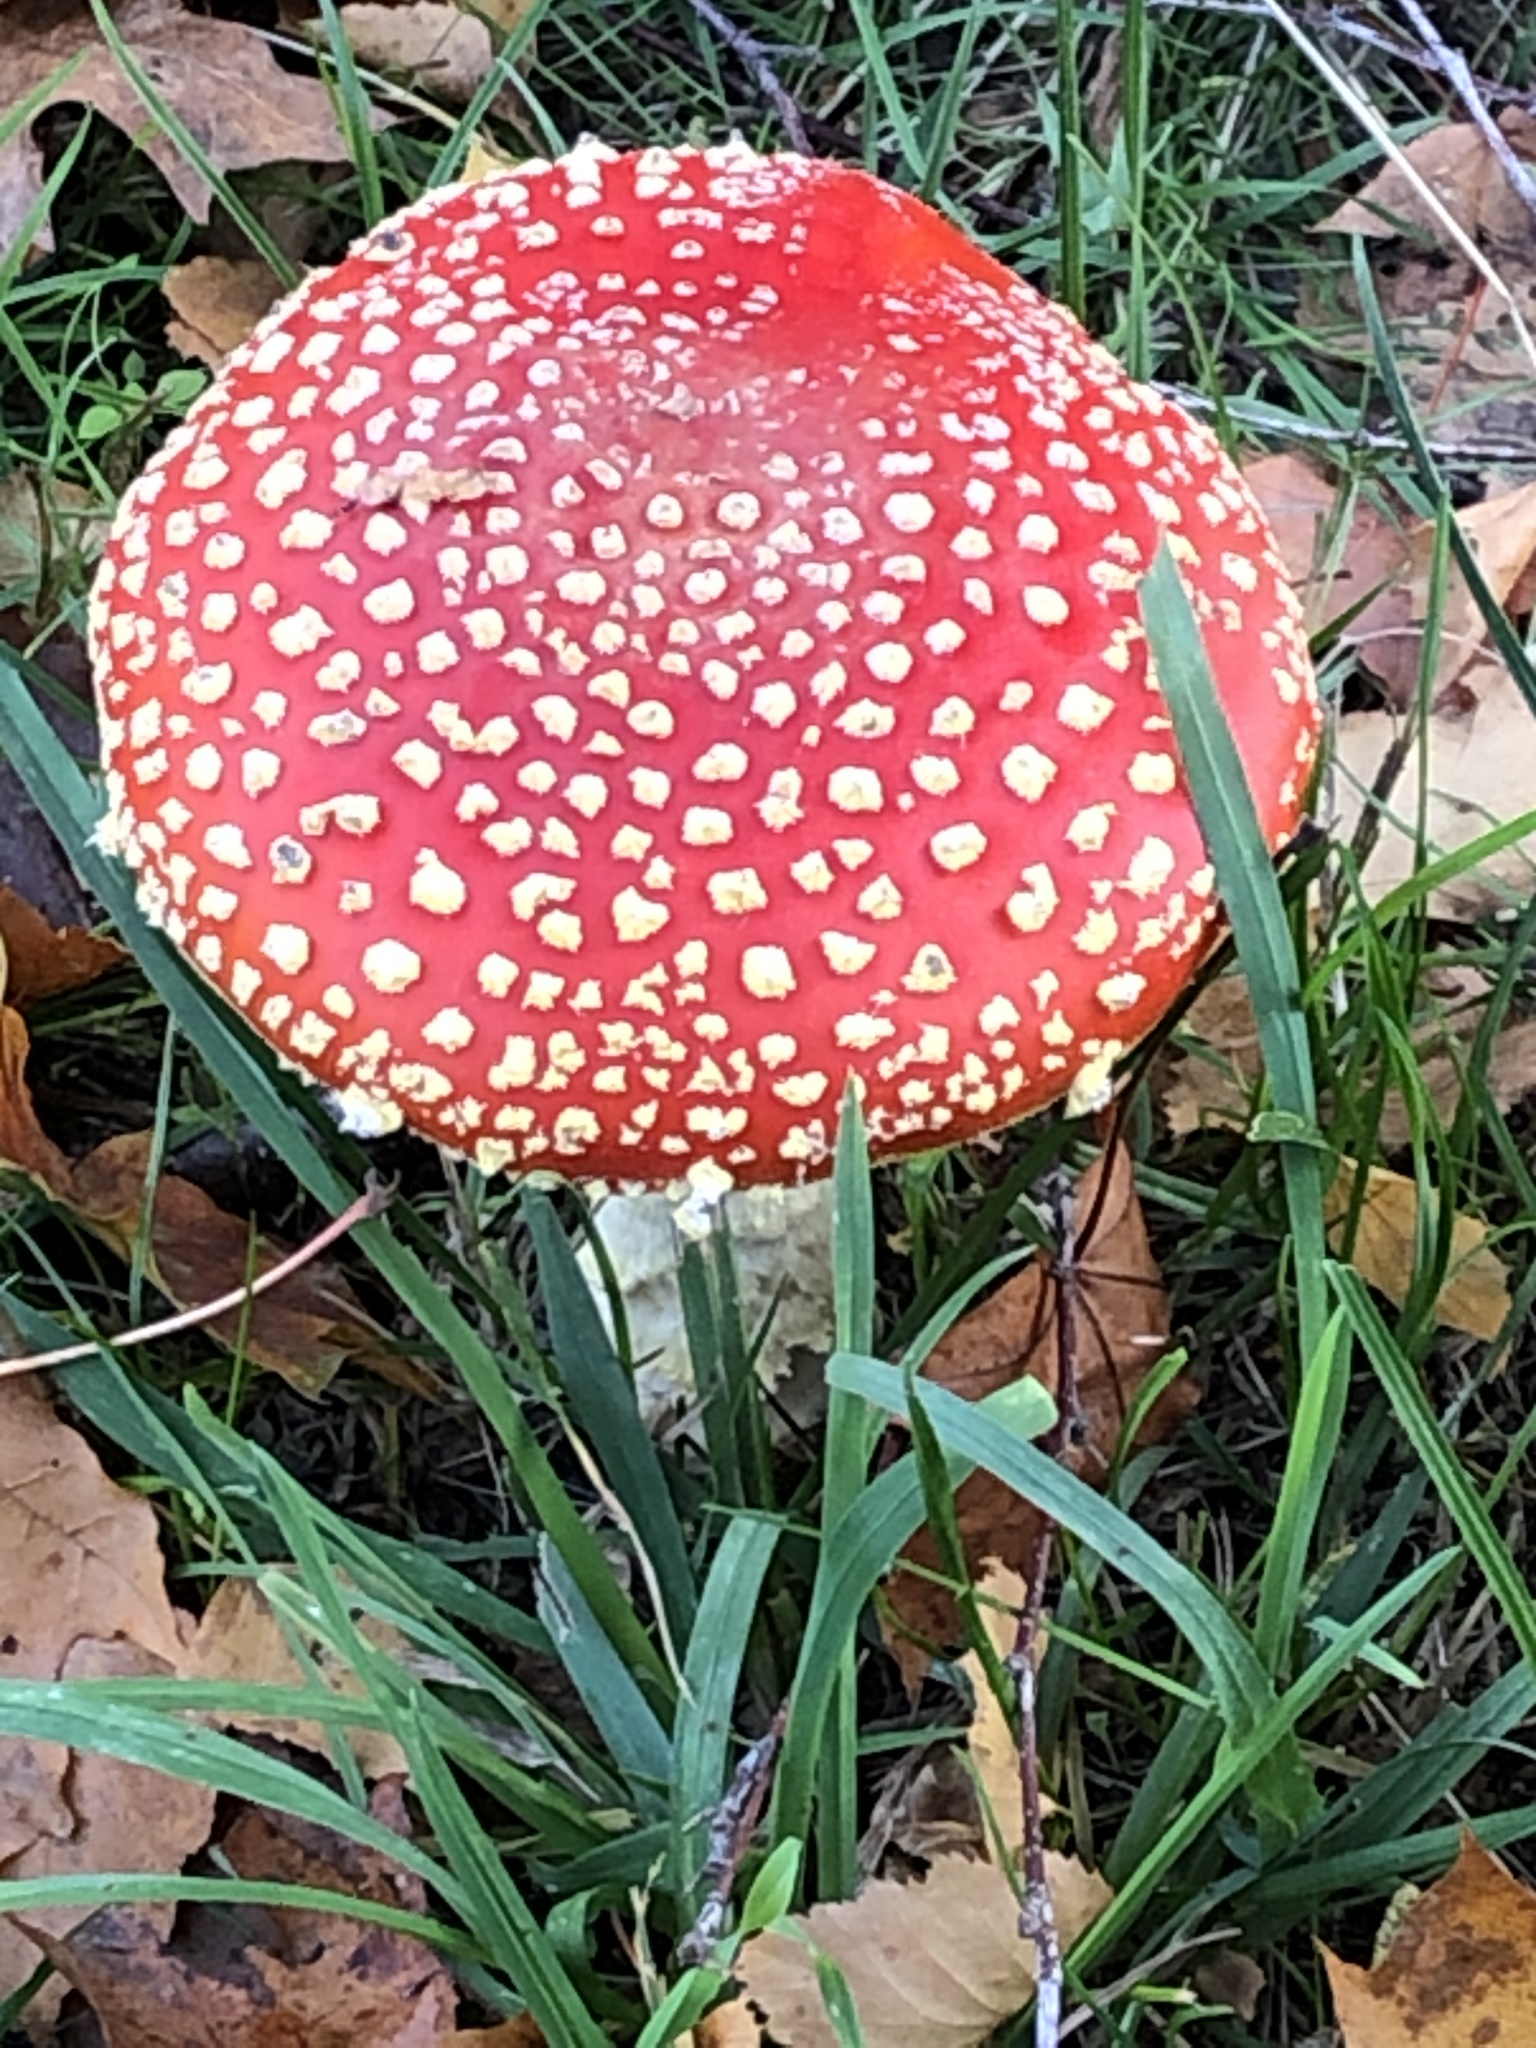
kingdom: Fungi
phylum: Basidiomycota
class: Agaricomycetes
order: Agaricales
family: Amanitaceae
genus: Amanita
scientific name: Amanita muscaria
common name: Fly agaric
